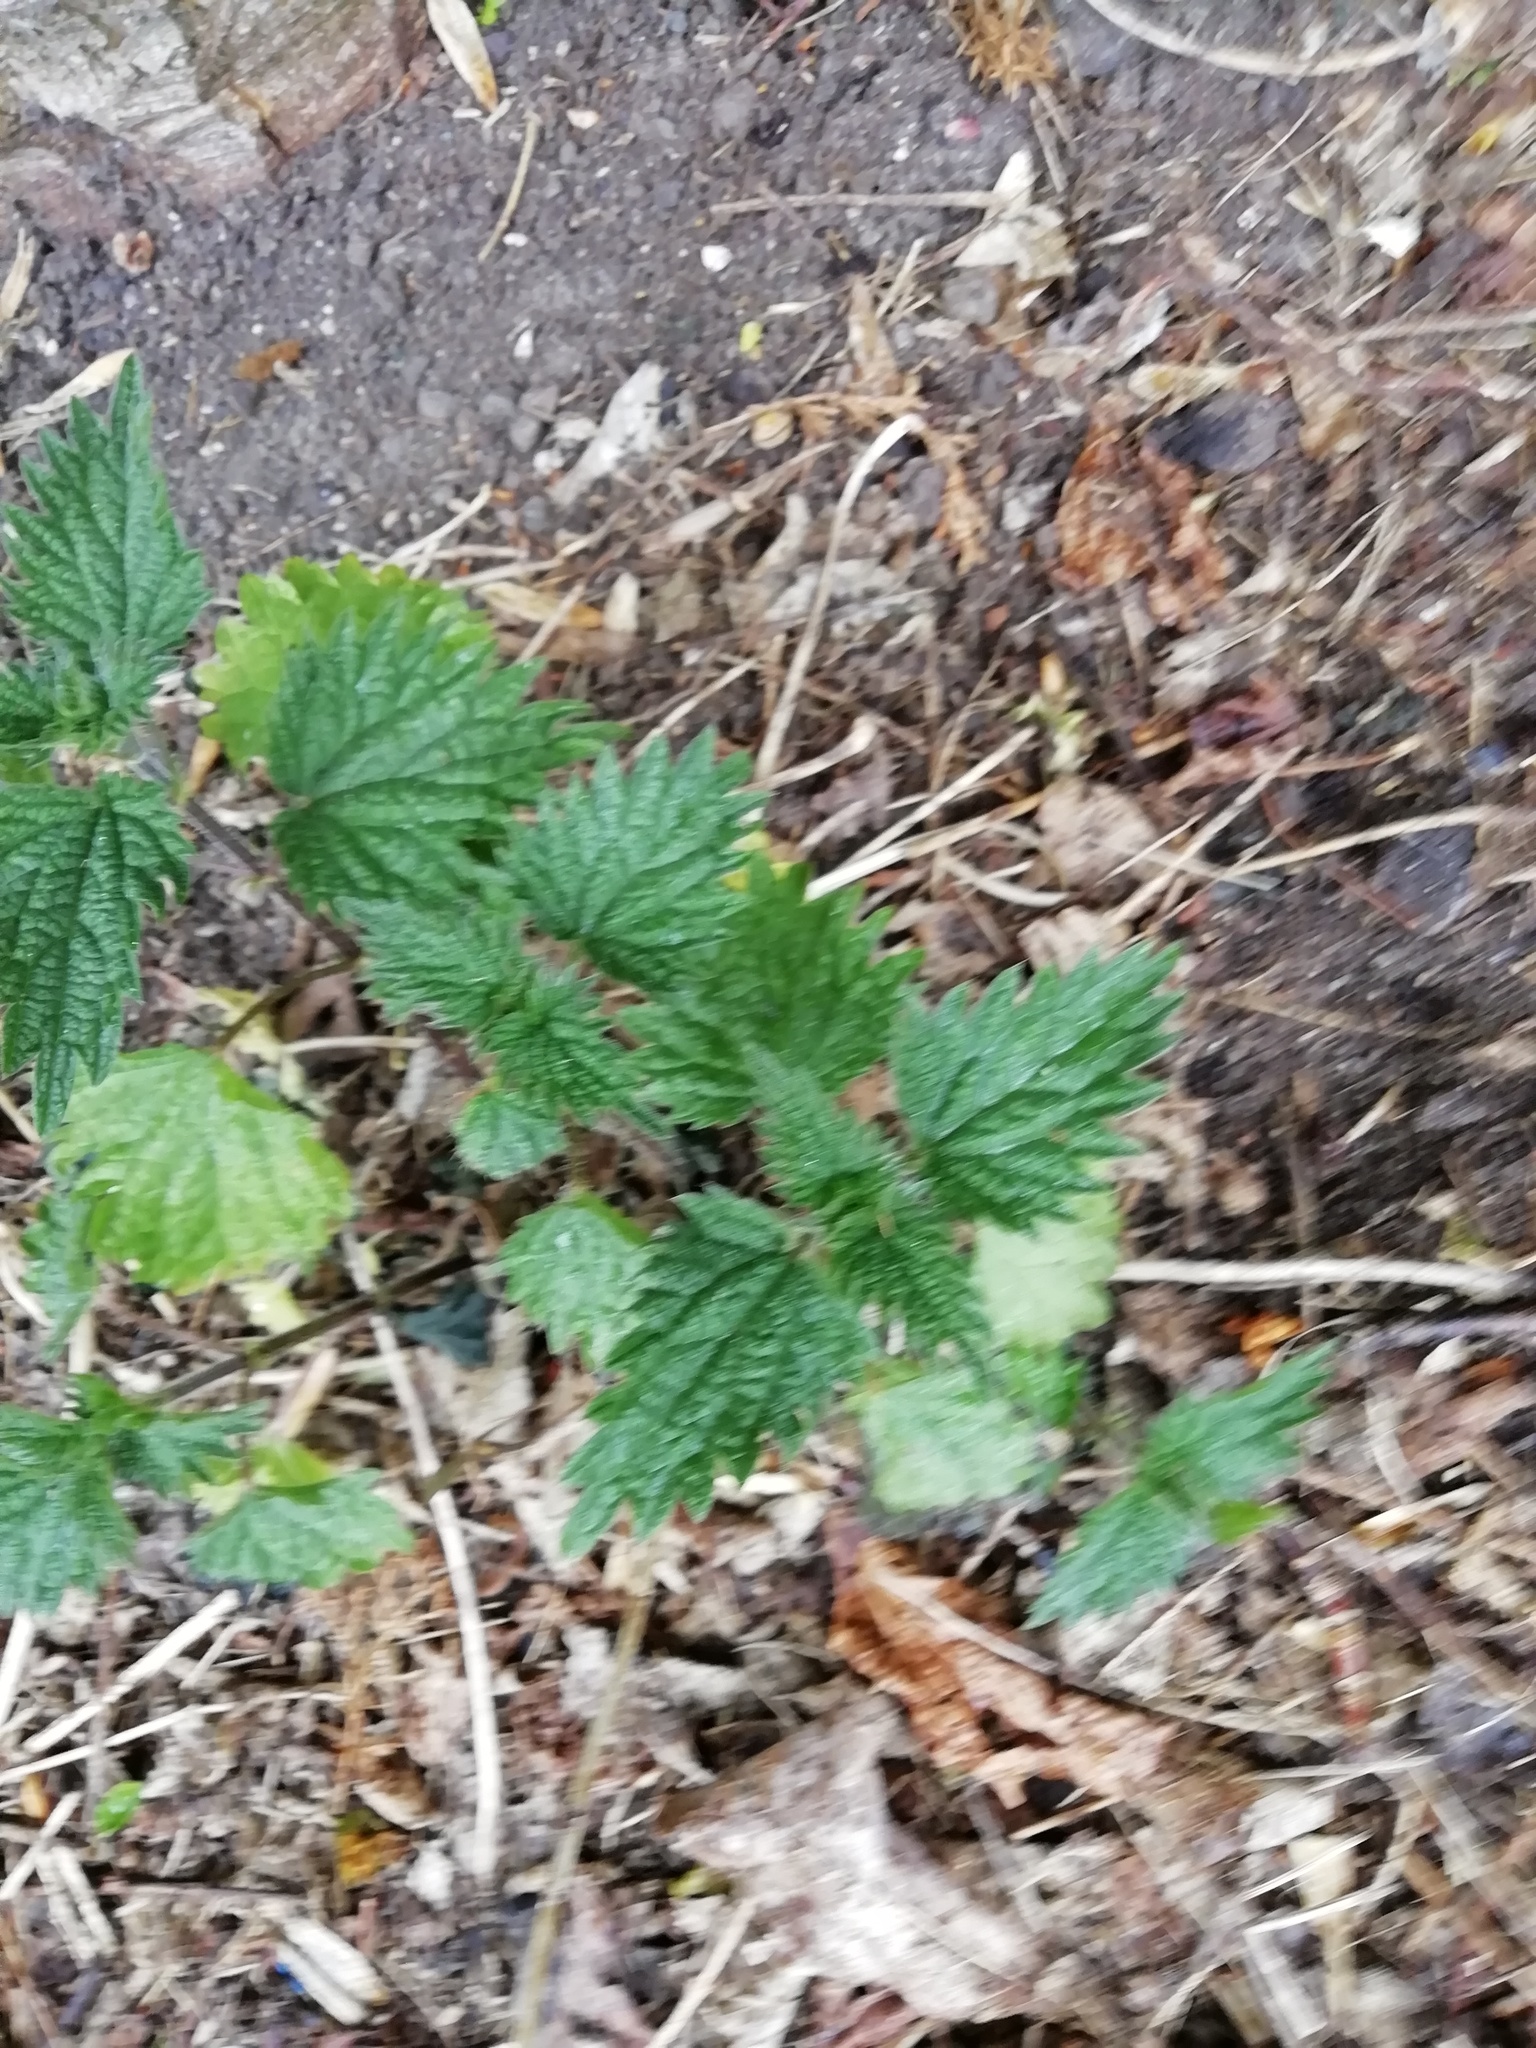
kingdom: Plantae
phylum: Tracheophyta
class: Magnoliopsida
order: Rosales
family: Urticaceae
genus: Urtica
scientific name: Urtica dioica
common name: Common nettle
